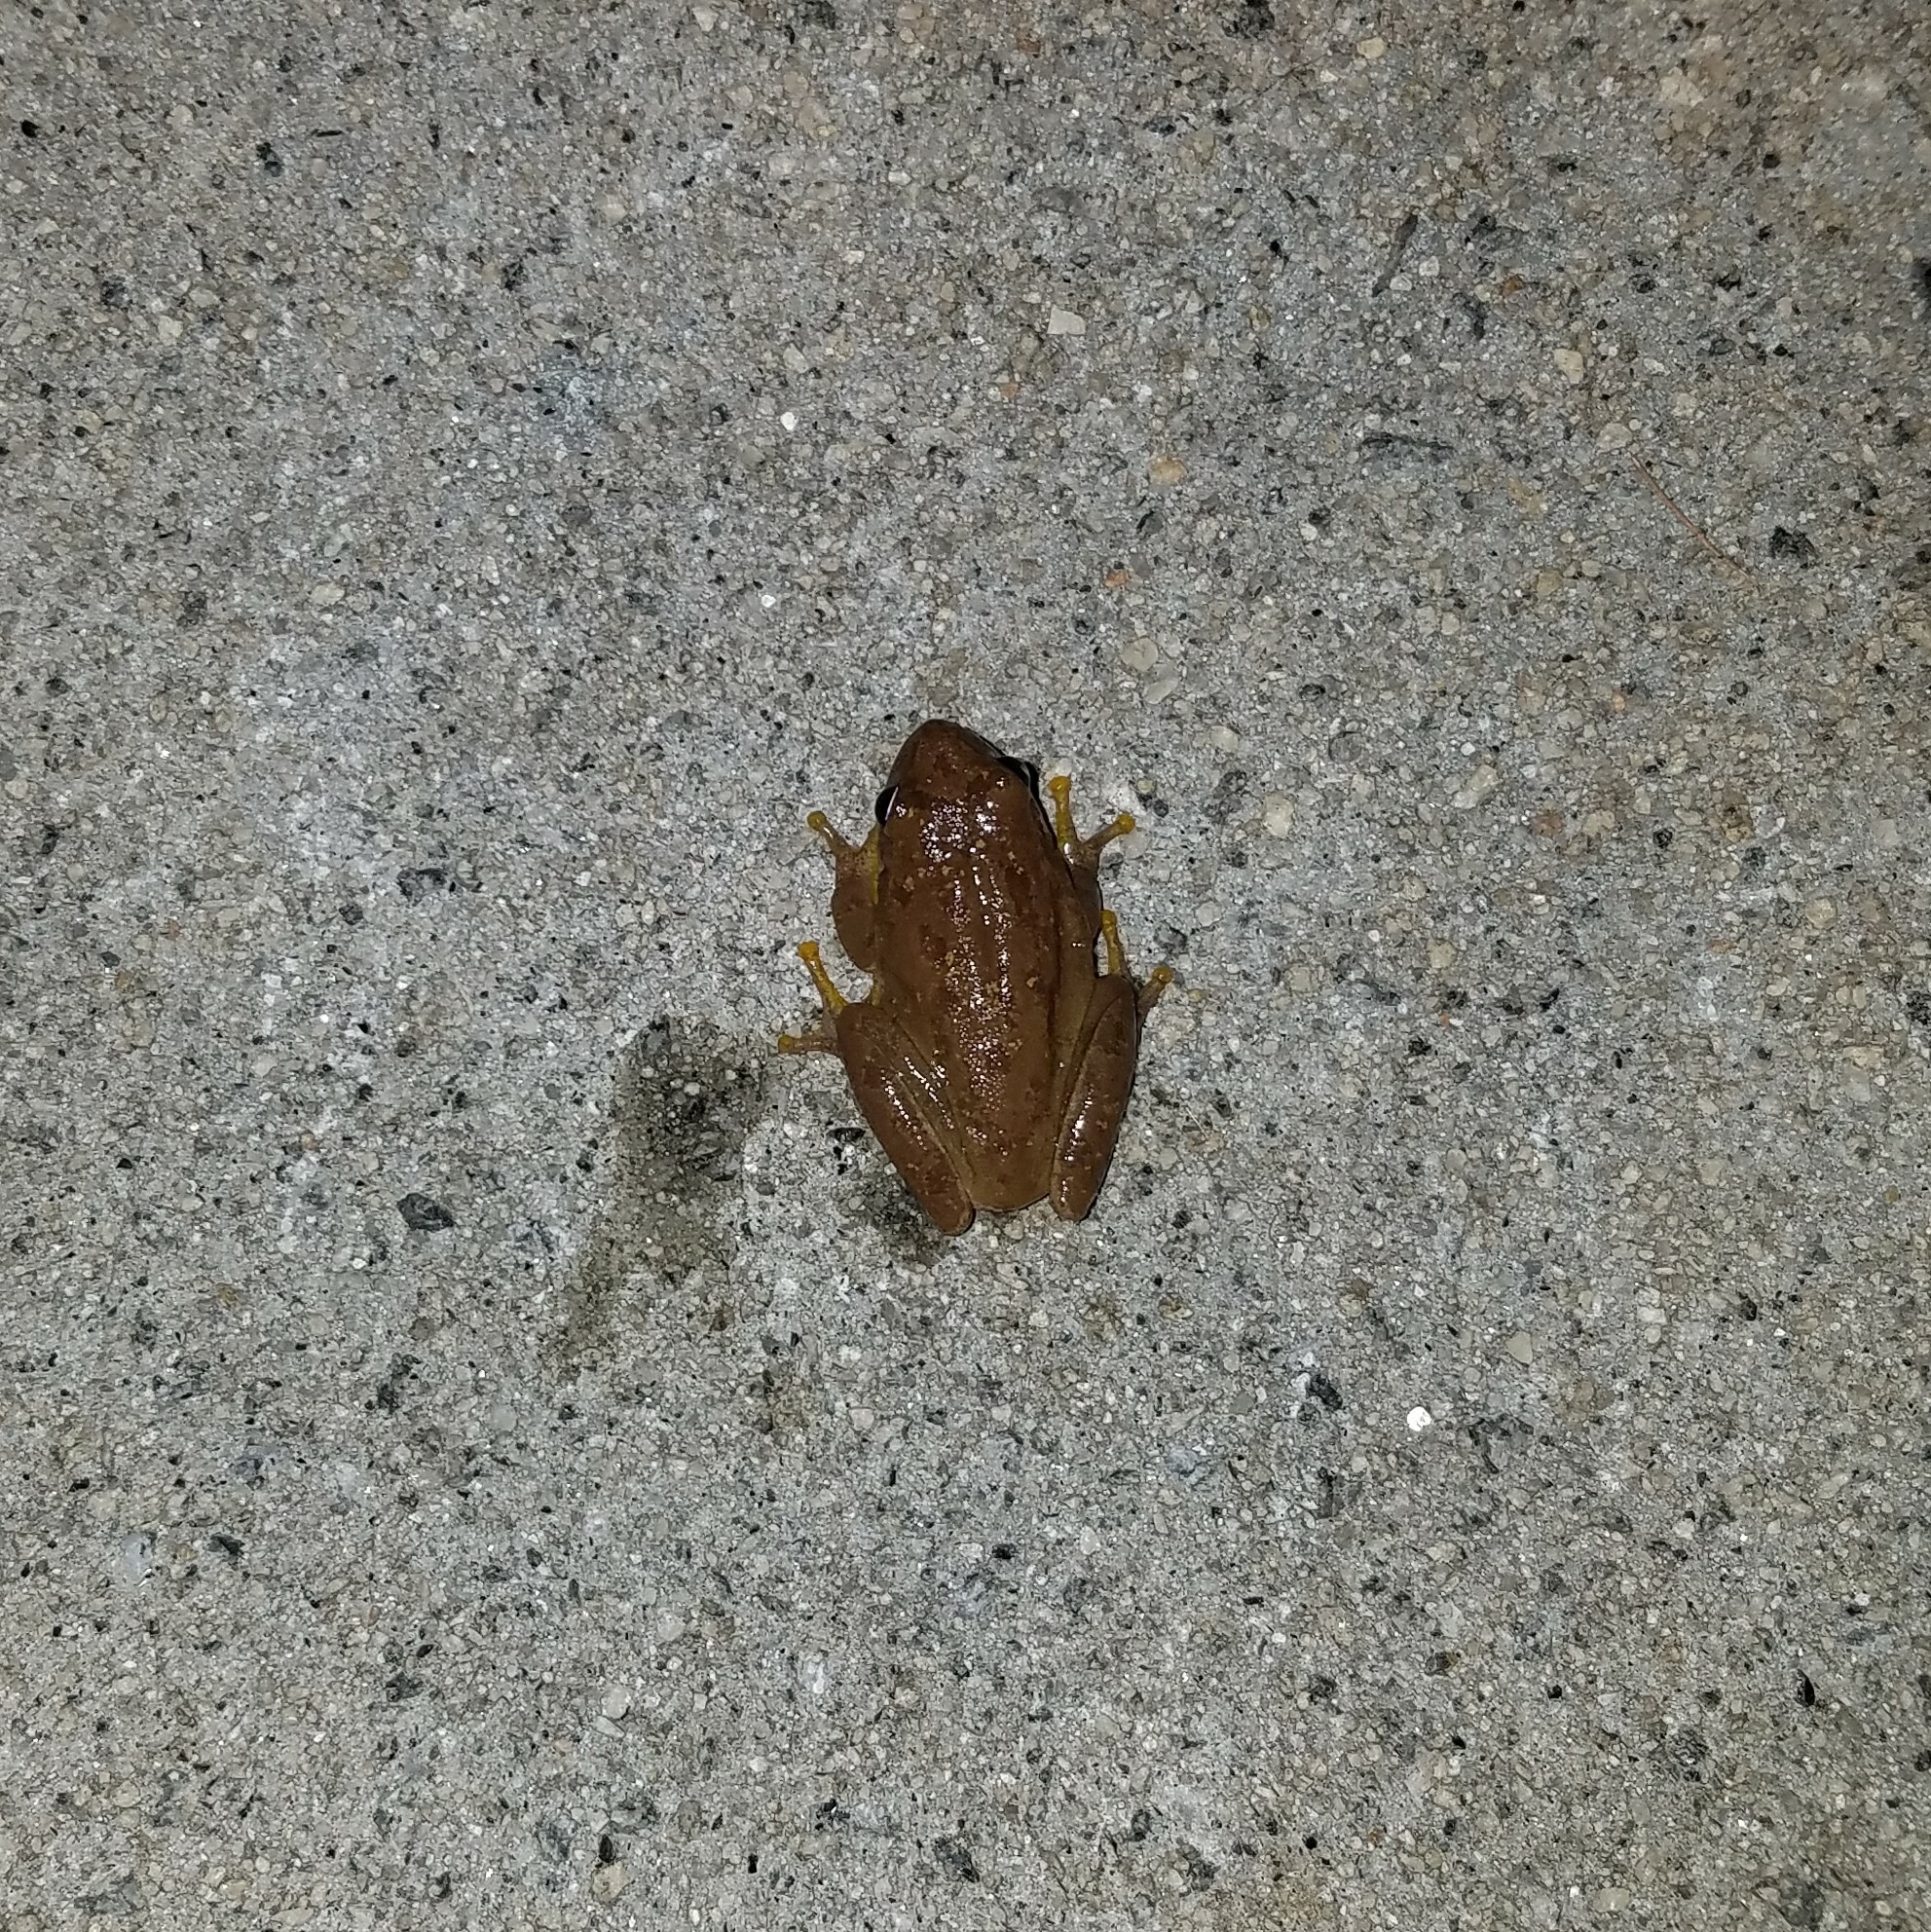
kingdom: Animalia
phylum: Chordata
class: Amphibia
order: Anura
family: Hylidae
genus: Dryophytes
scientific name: Dryophytes squirellus
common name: Squirrel treefrog
